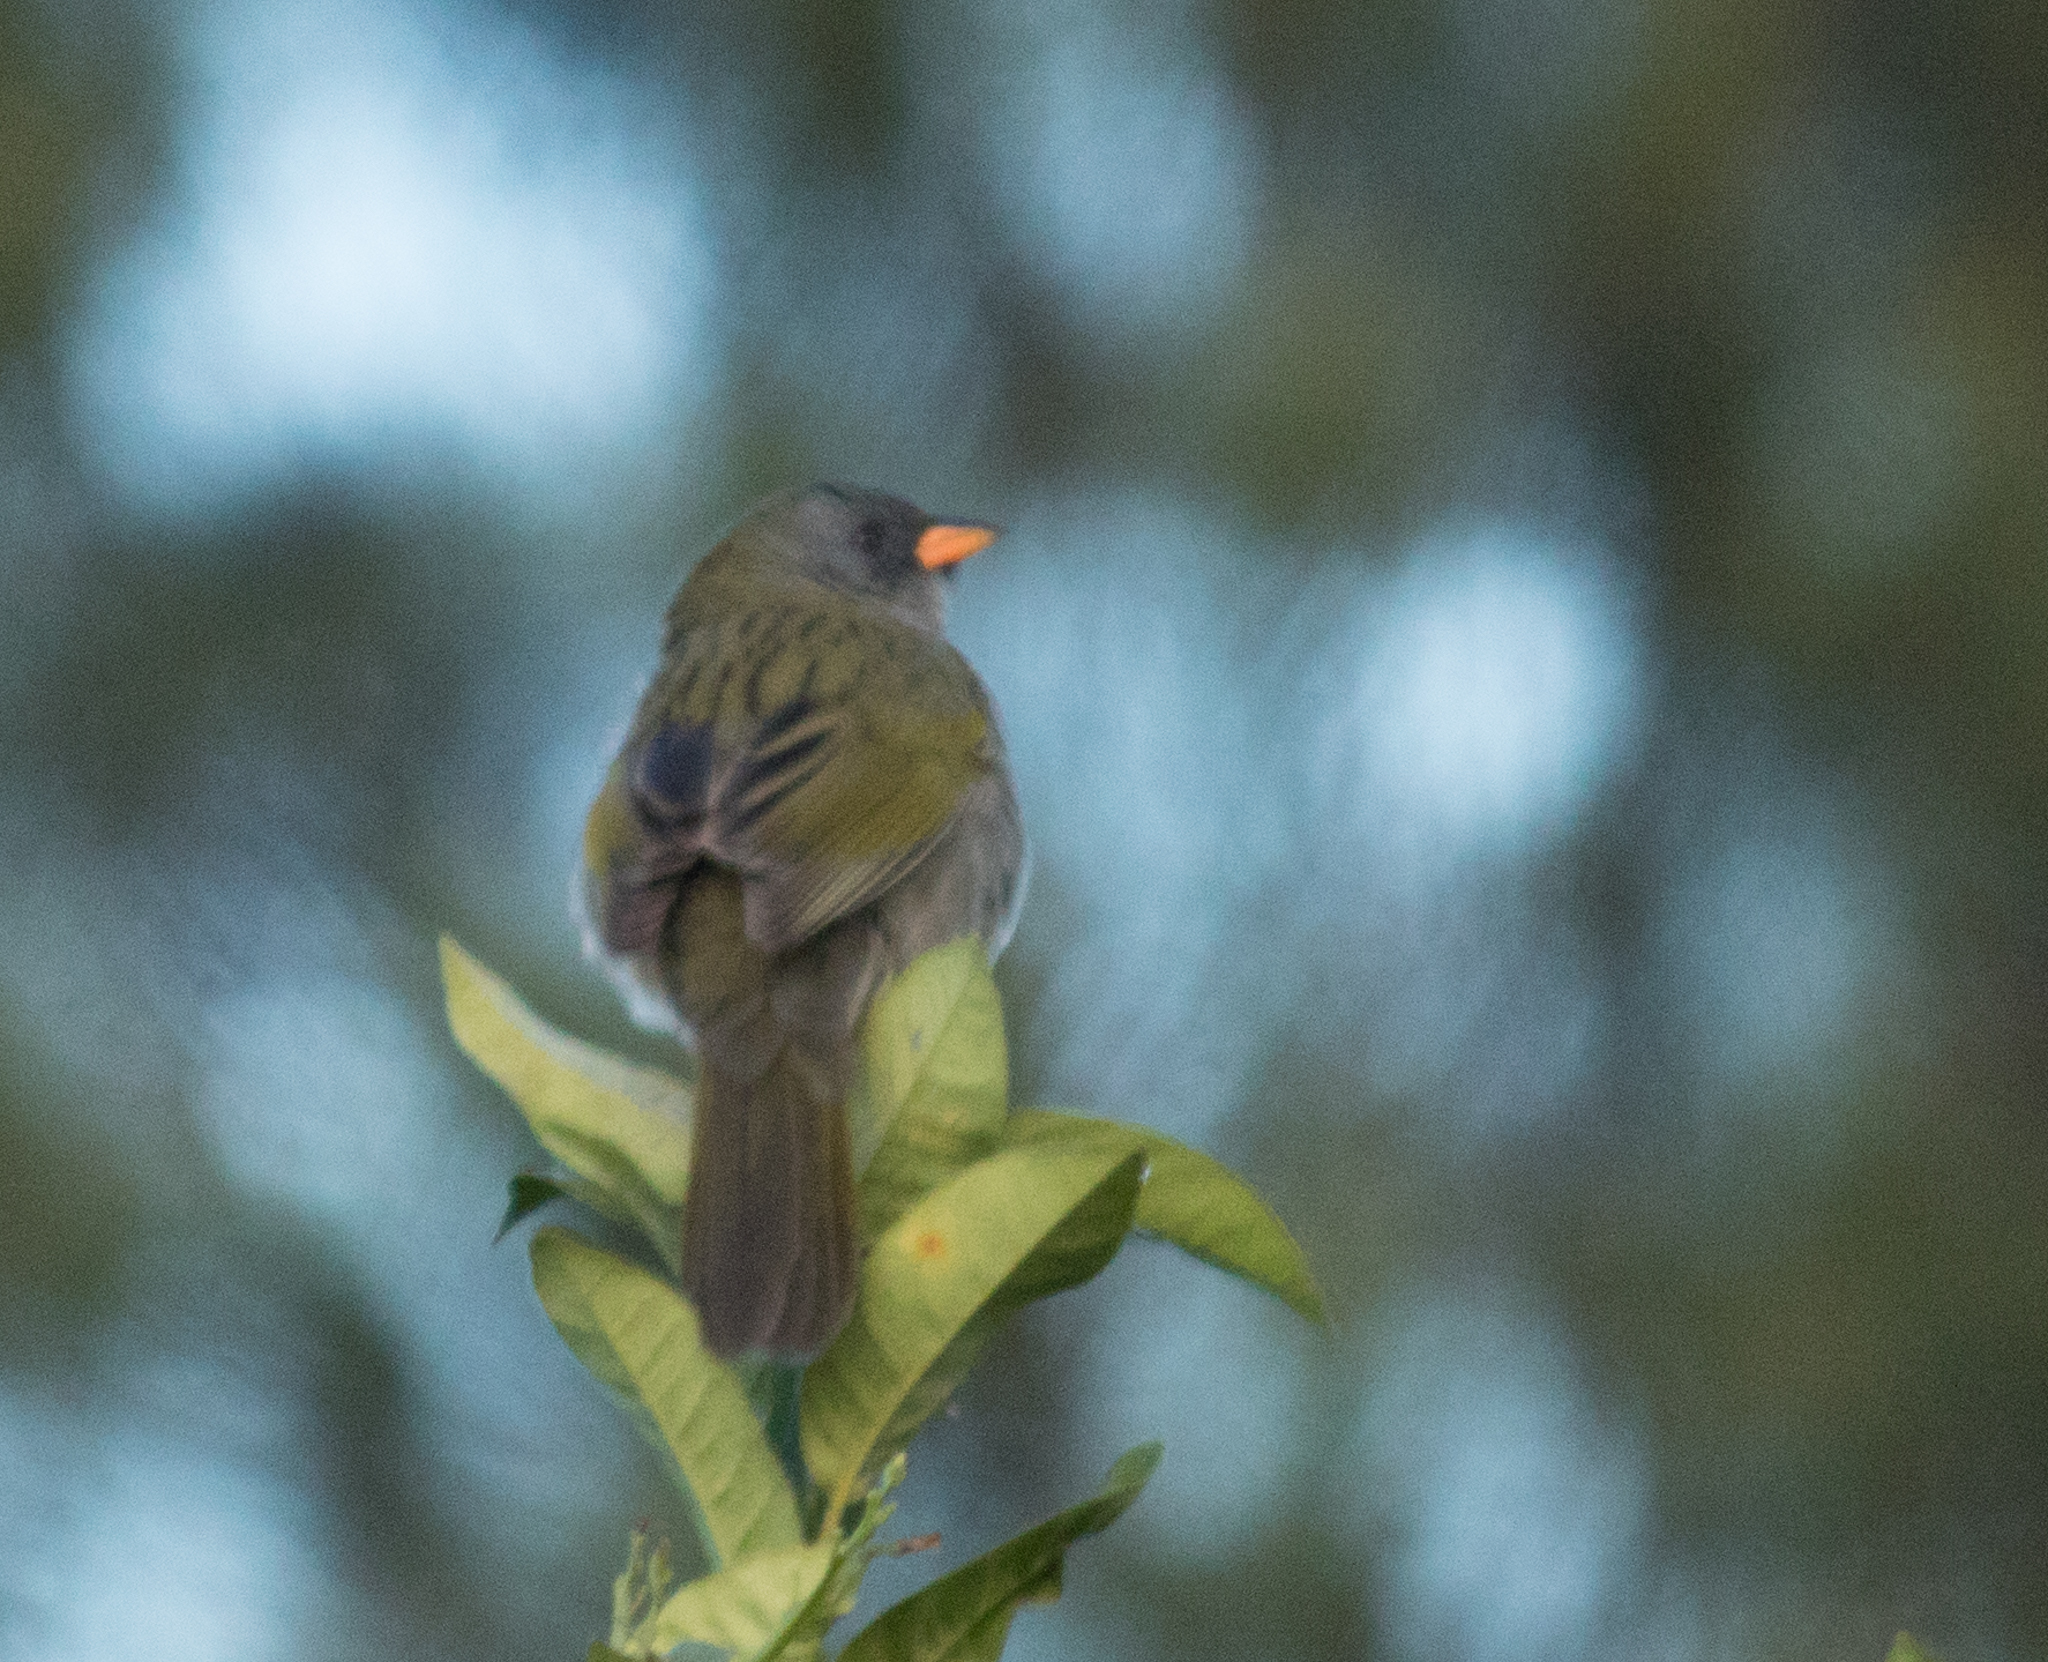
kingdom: Animalia
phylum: Chordata
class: Aves
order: Passeriformes
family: Thraupidae
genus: Embernagra
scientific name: Embernagra platensis
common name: Pampa finch
